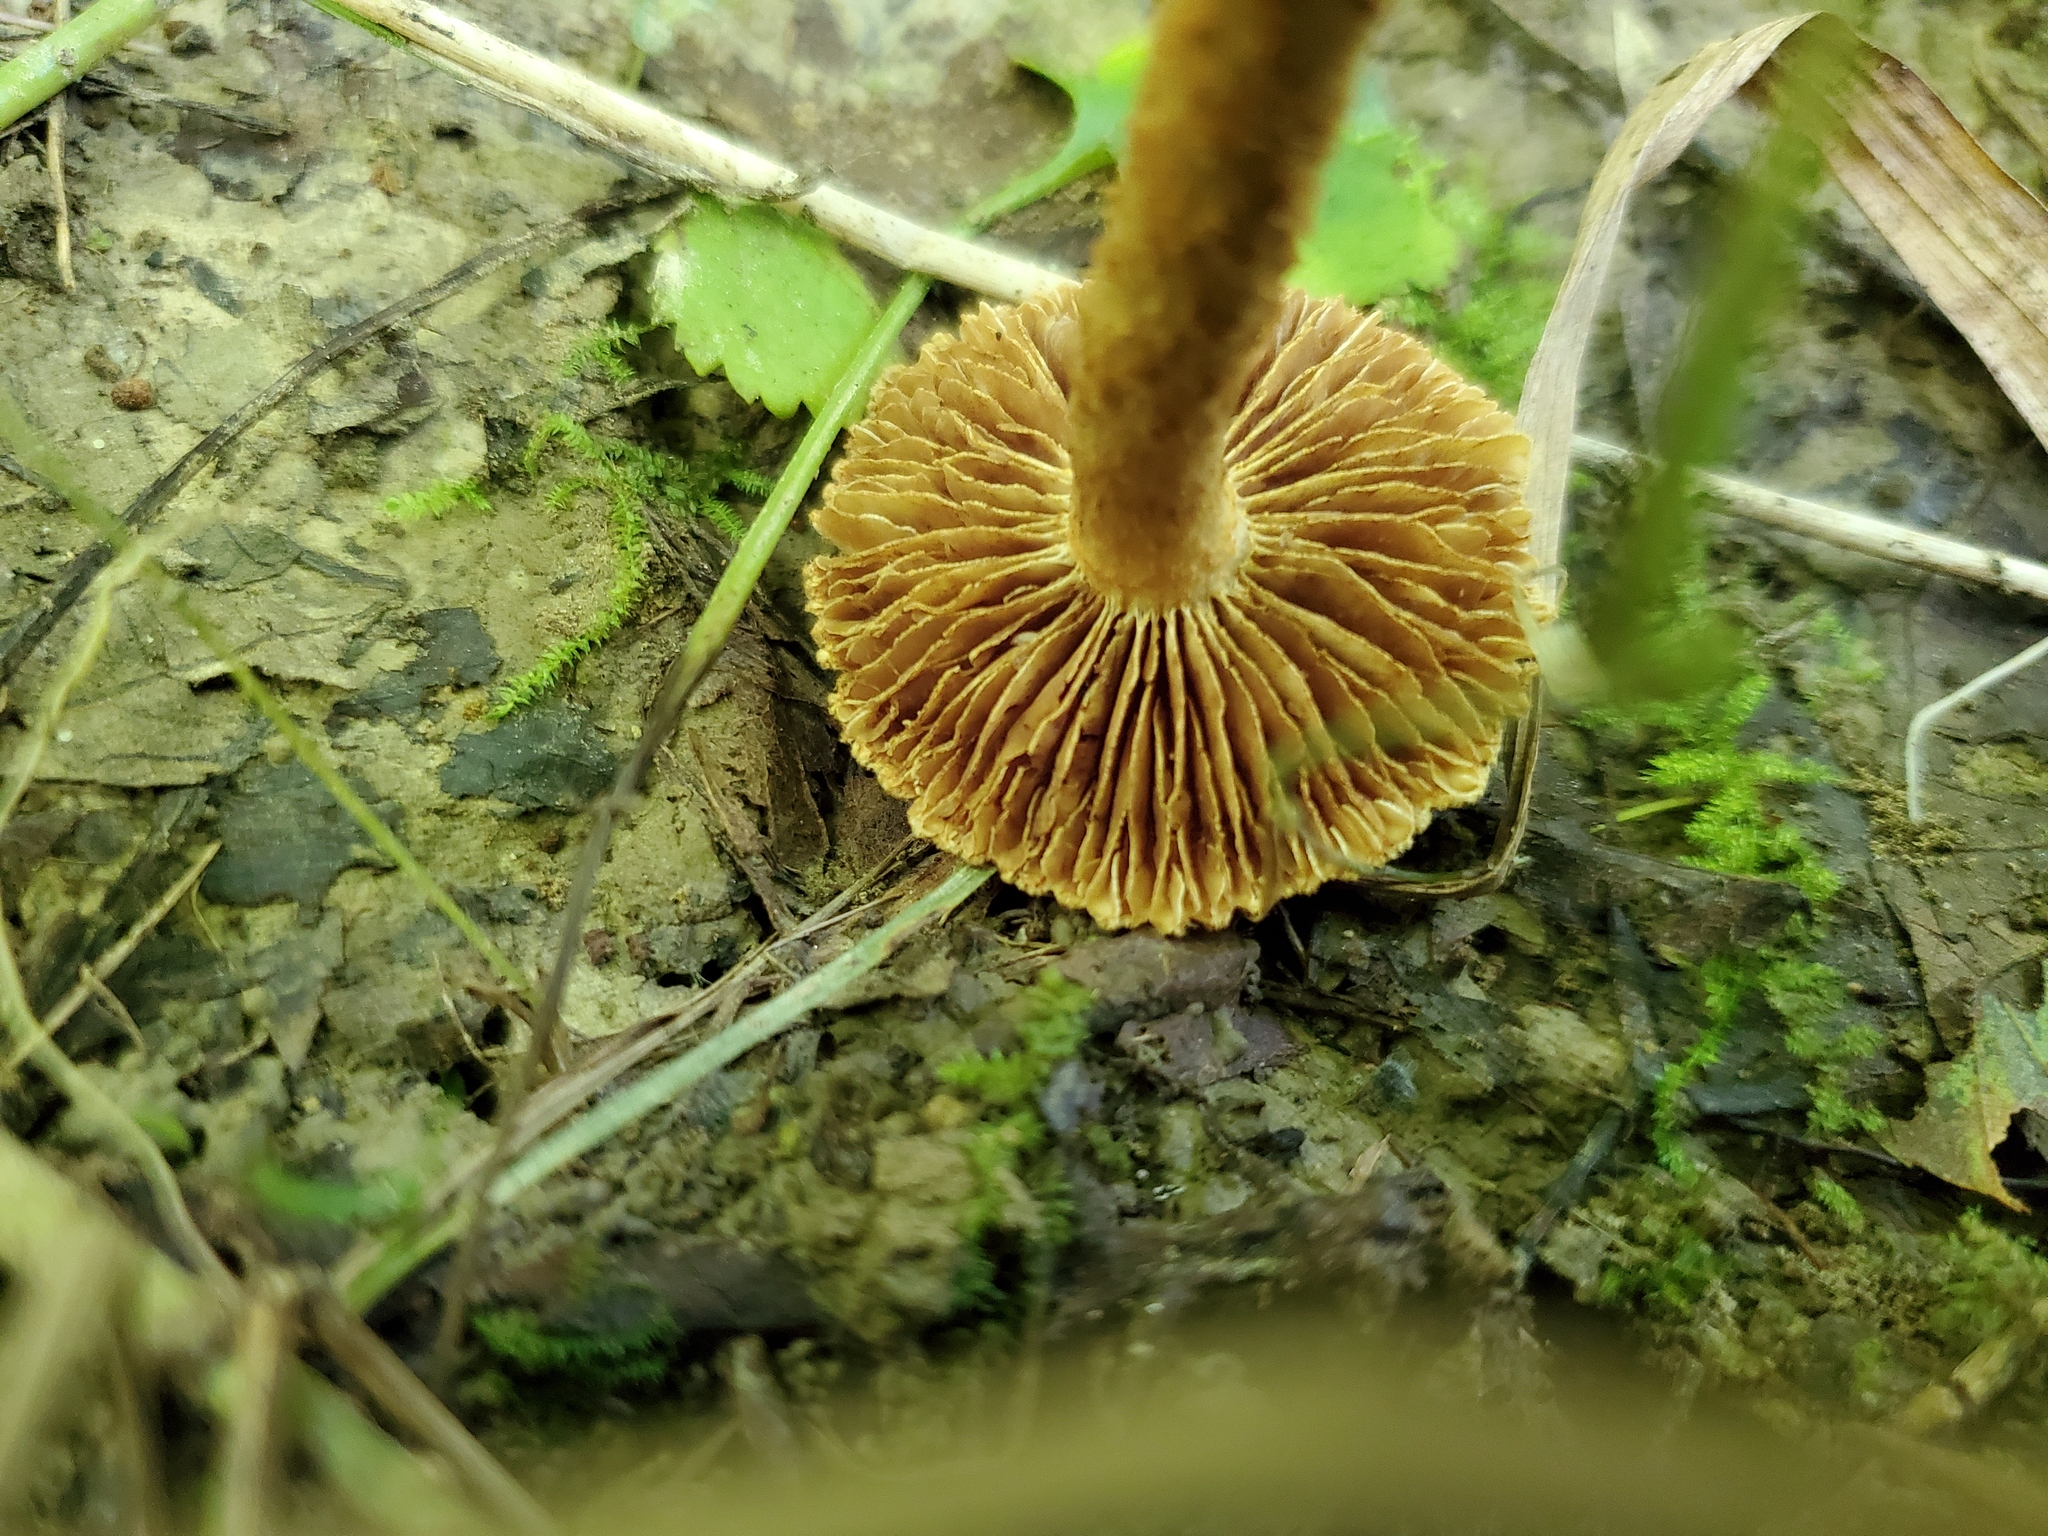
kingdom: Fungi
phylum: Basidiomycota
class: Agaricomycetes
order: Agaricales
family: Inocybaceae
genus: Mallocybe
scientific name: Mallocybe unicolor
